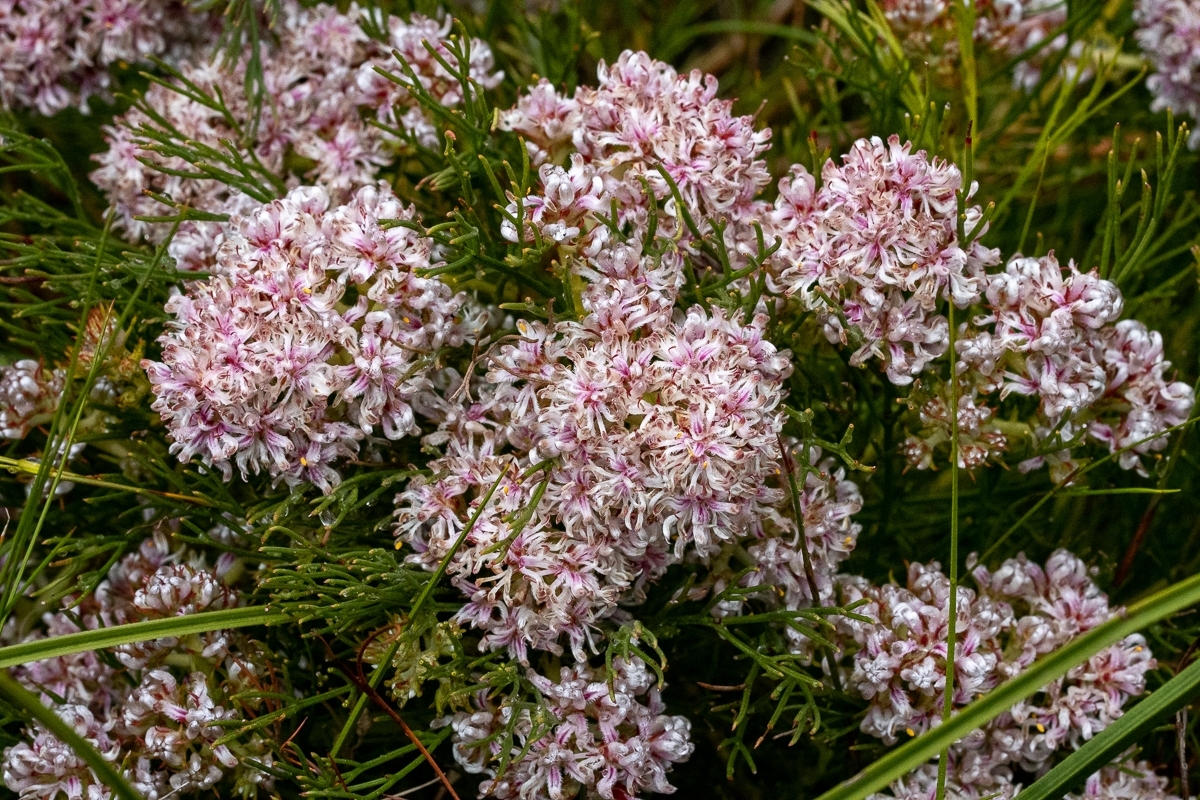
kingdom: Plantae
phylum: Tracheophyta
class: Magnoliopsida
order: Proteales
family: Proteaceae
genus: Serruria
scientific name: Serruria rubricaulis
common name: Red-stem spiderhead
